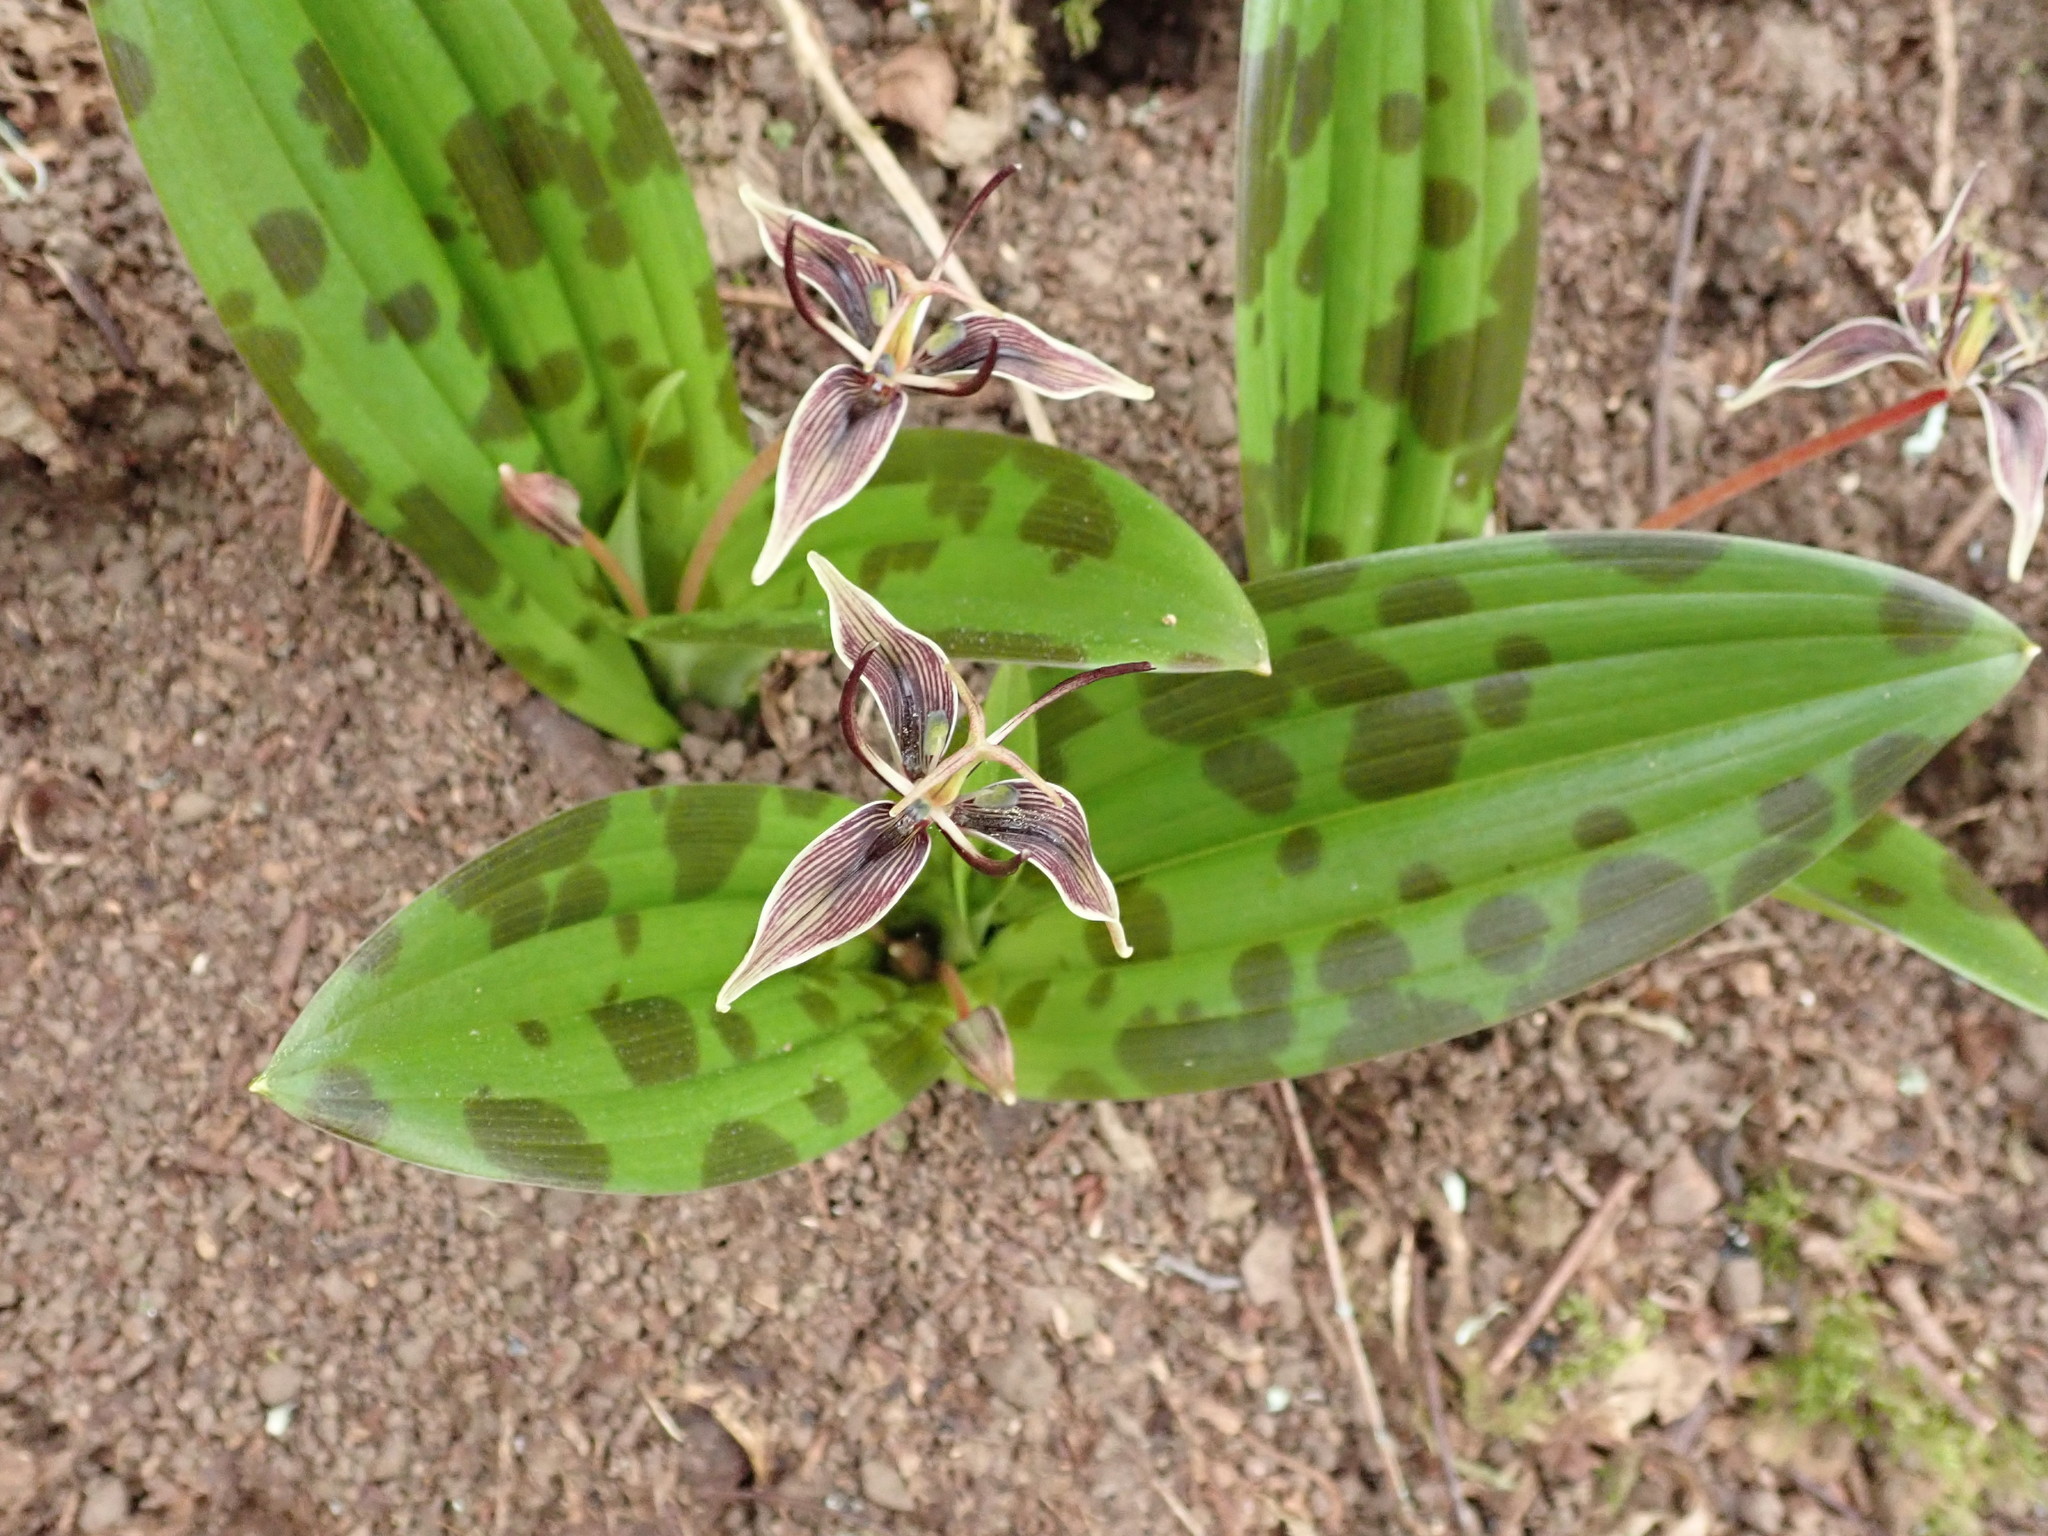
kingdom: Plantae
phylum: Tracheophyta
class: Liliopsida
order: Liliales
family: Liliaceae
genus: Scoliopus
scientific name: Scoliopus bigelovii
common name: Foetid adder's-tongue
